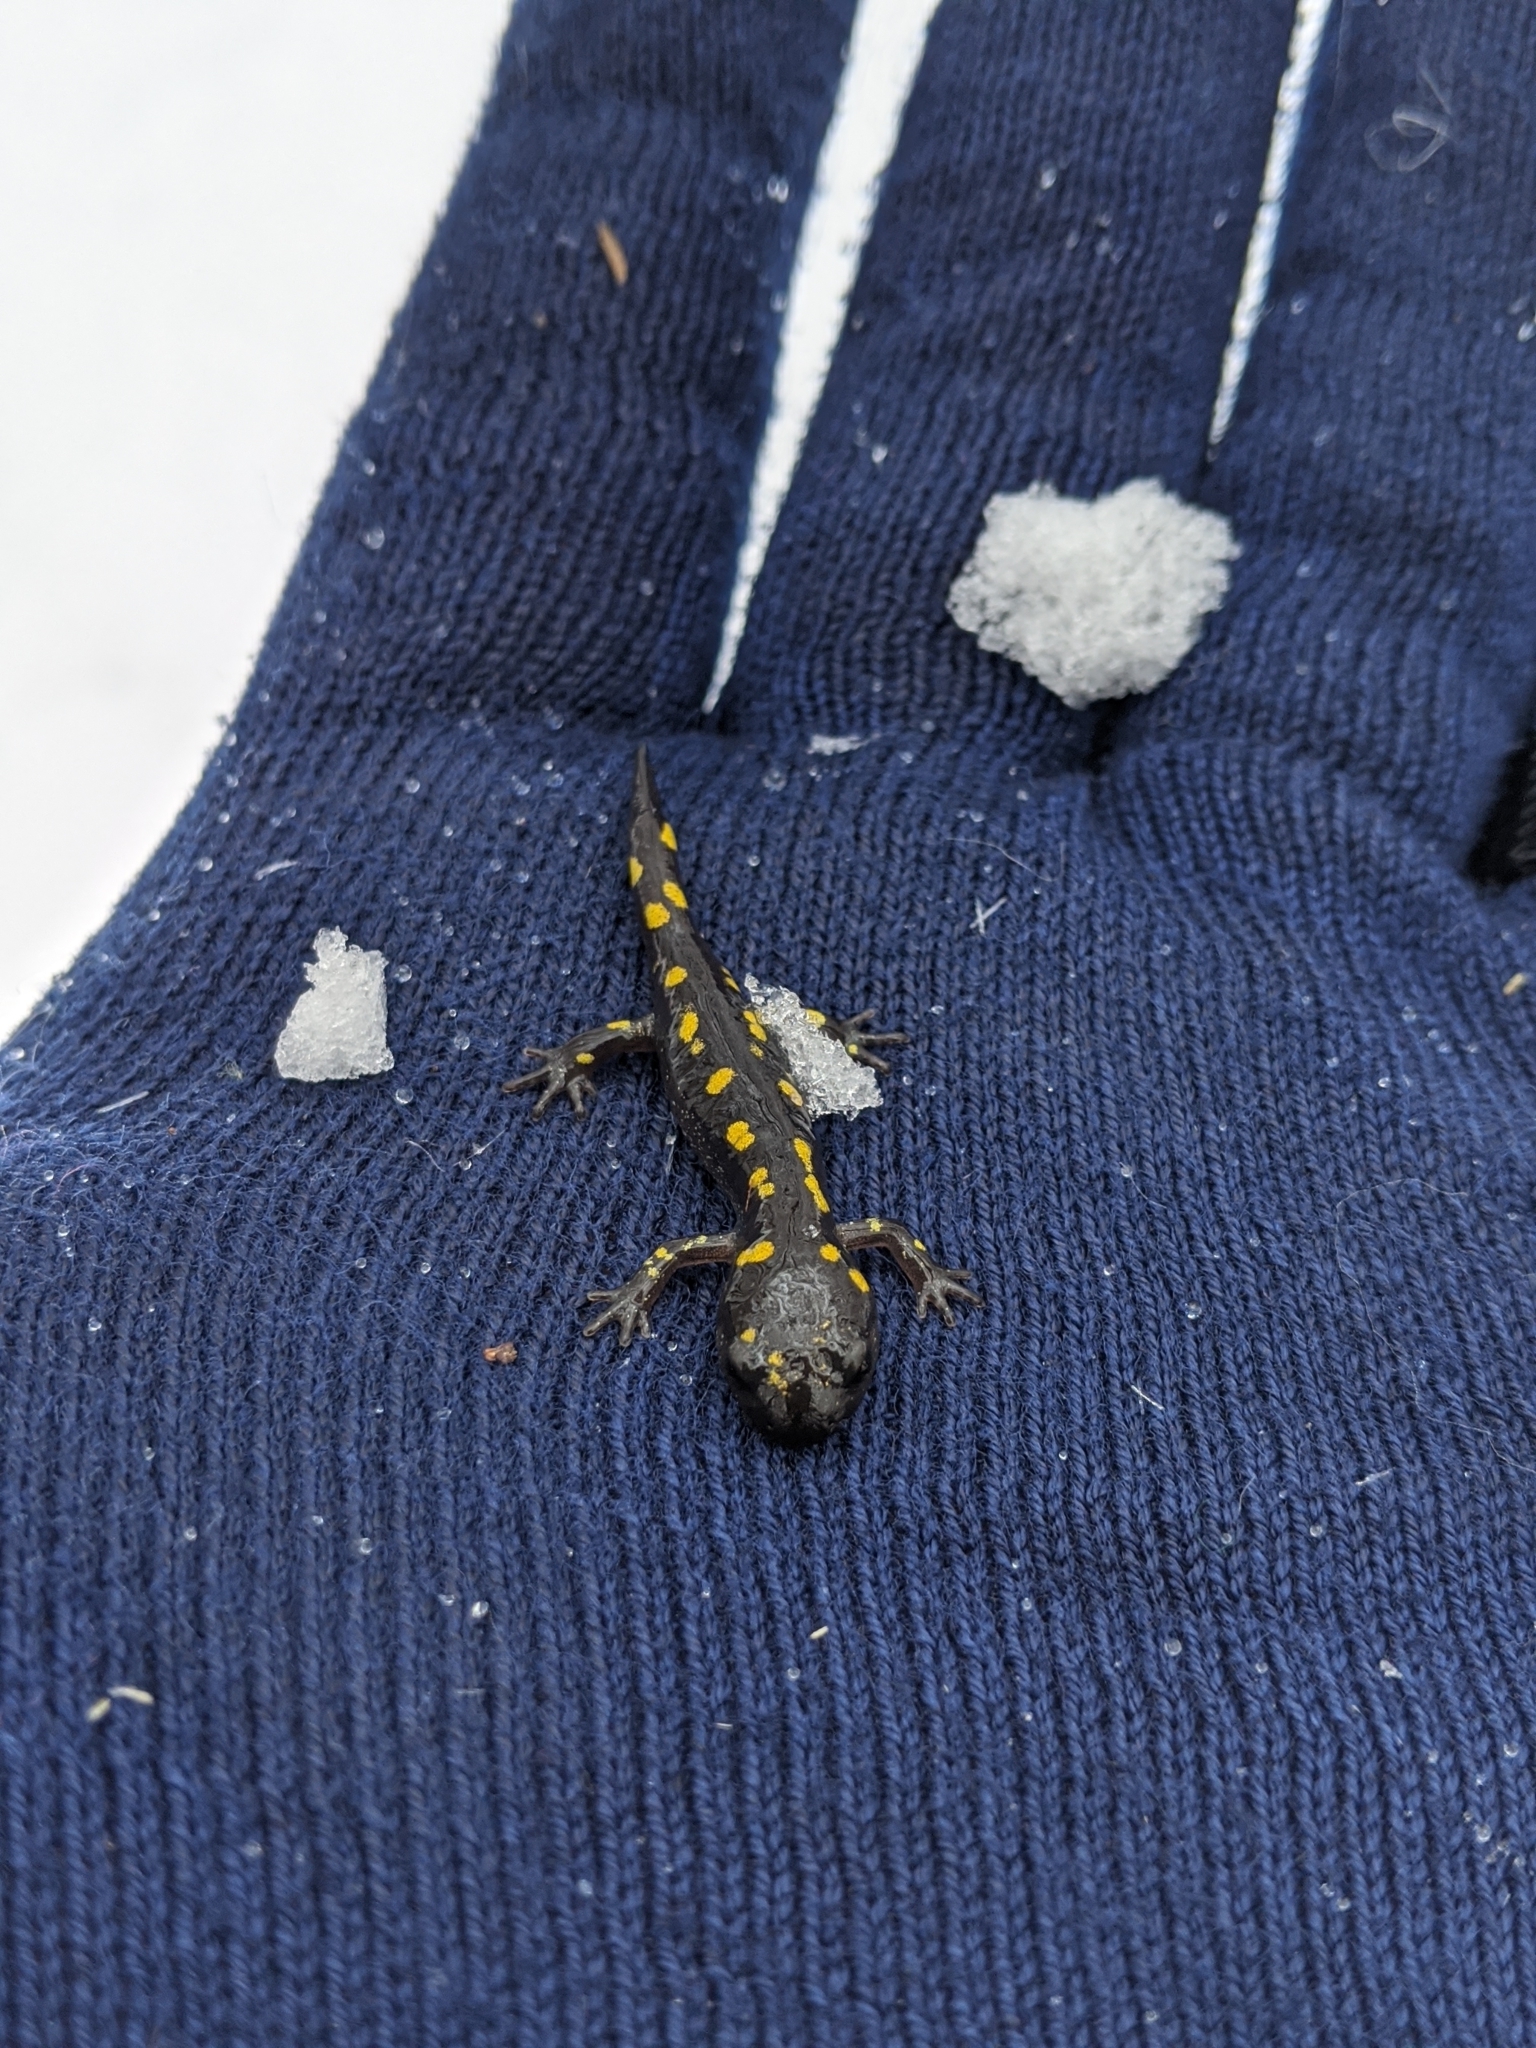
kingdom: Animalia
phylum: Chordata
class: Amphibia
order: Caudata
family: Ambystomatidae
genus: Ambystoma
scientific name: Ambystoma maculatum
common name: Spotted salamander
